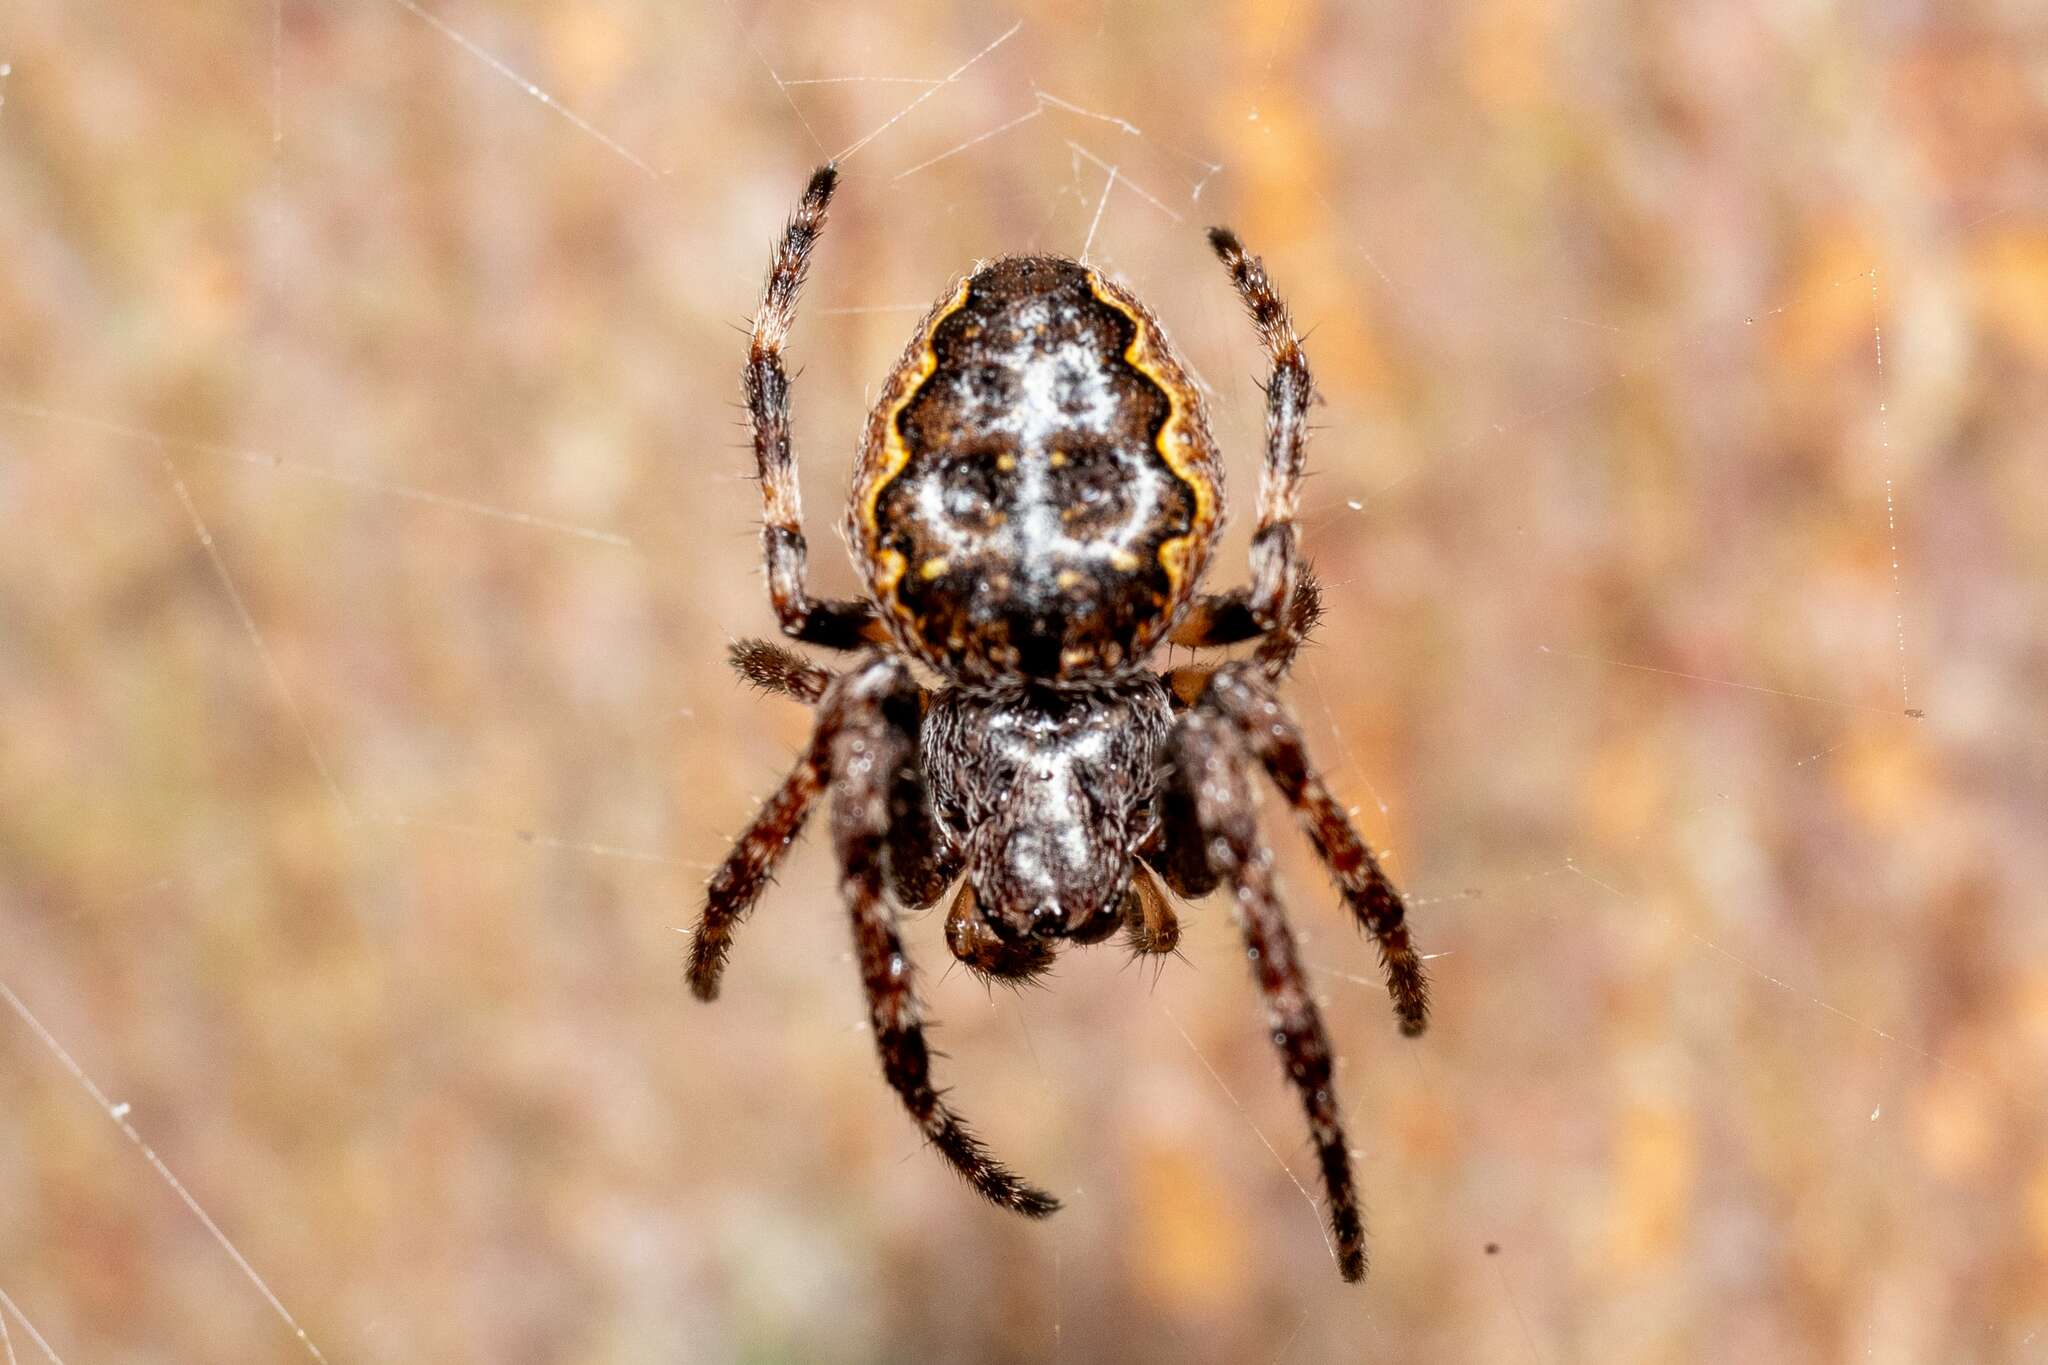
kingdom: Animalia
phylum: Arthropoda
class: Arachnida
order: Araneae
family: Araneidae
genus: Nuctenea
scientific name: Nuctenea umbratica
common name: Toad spider
